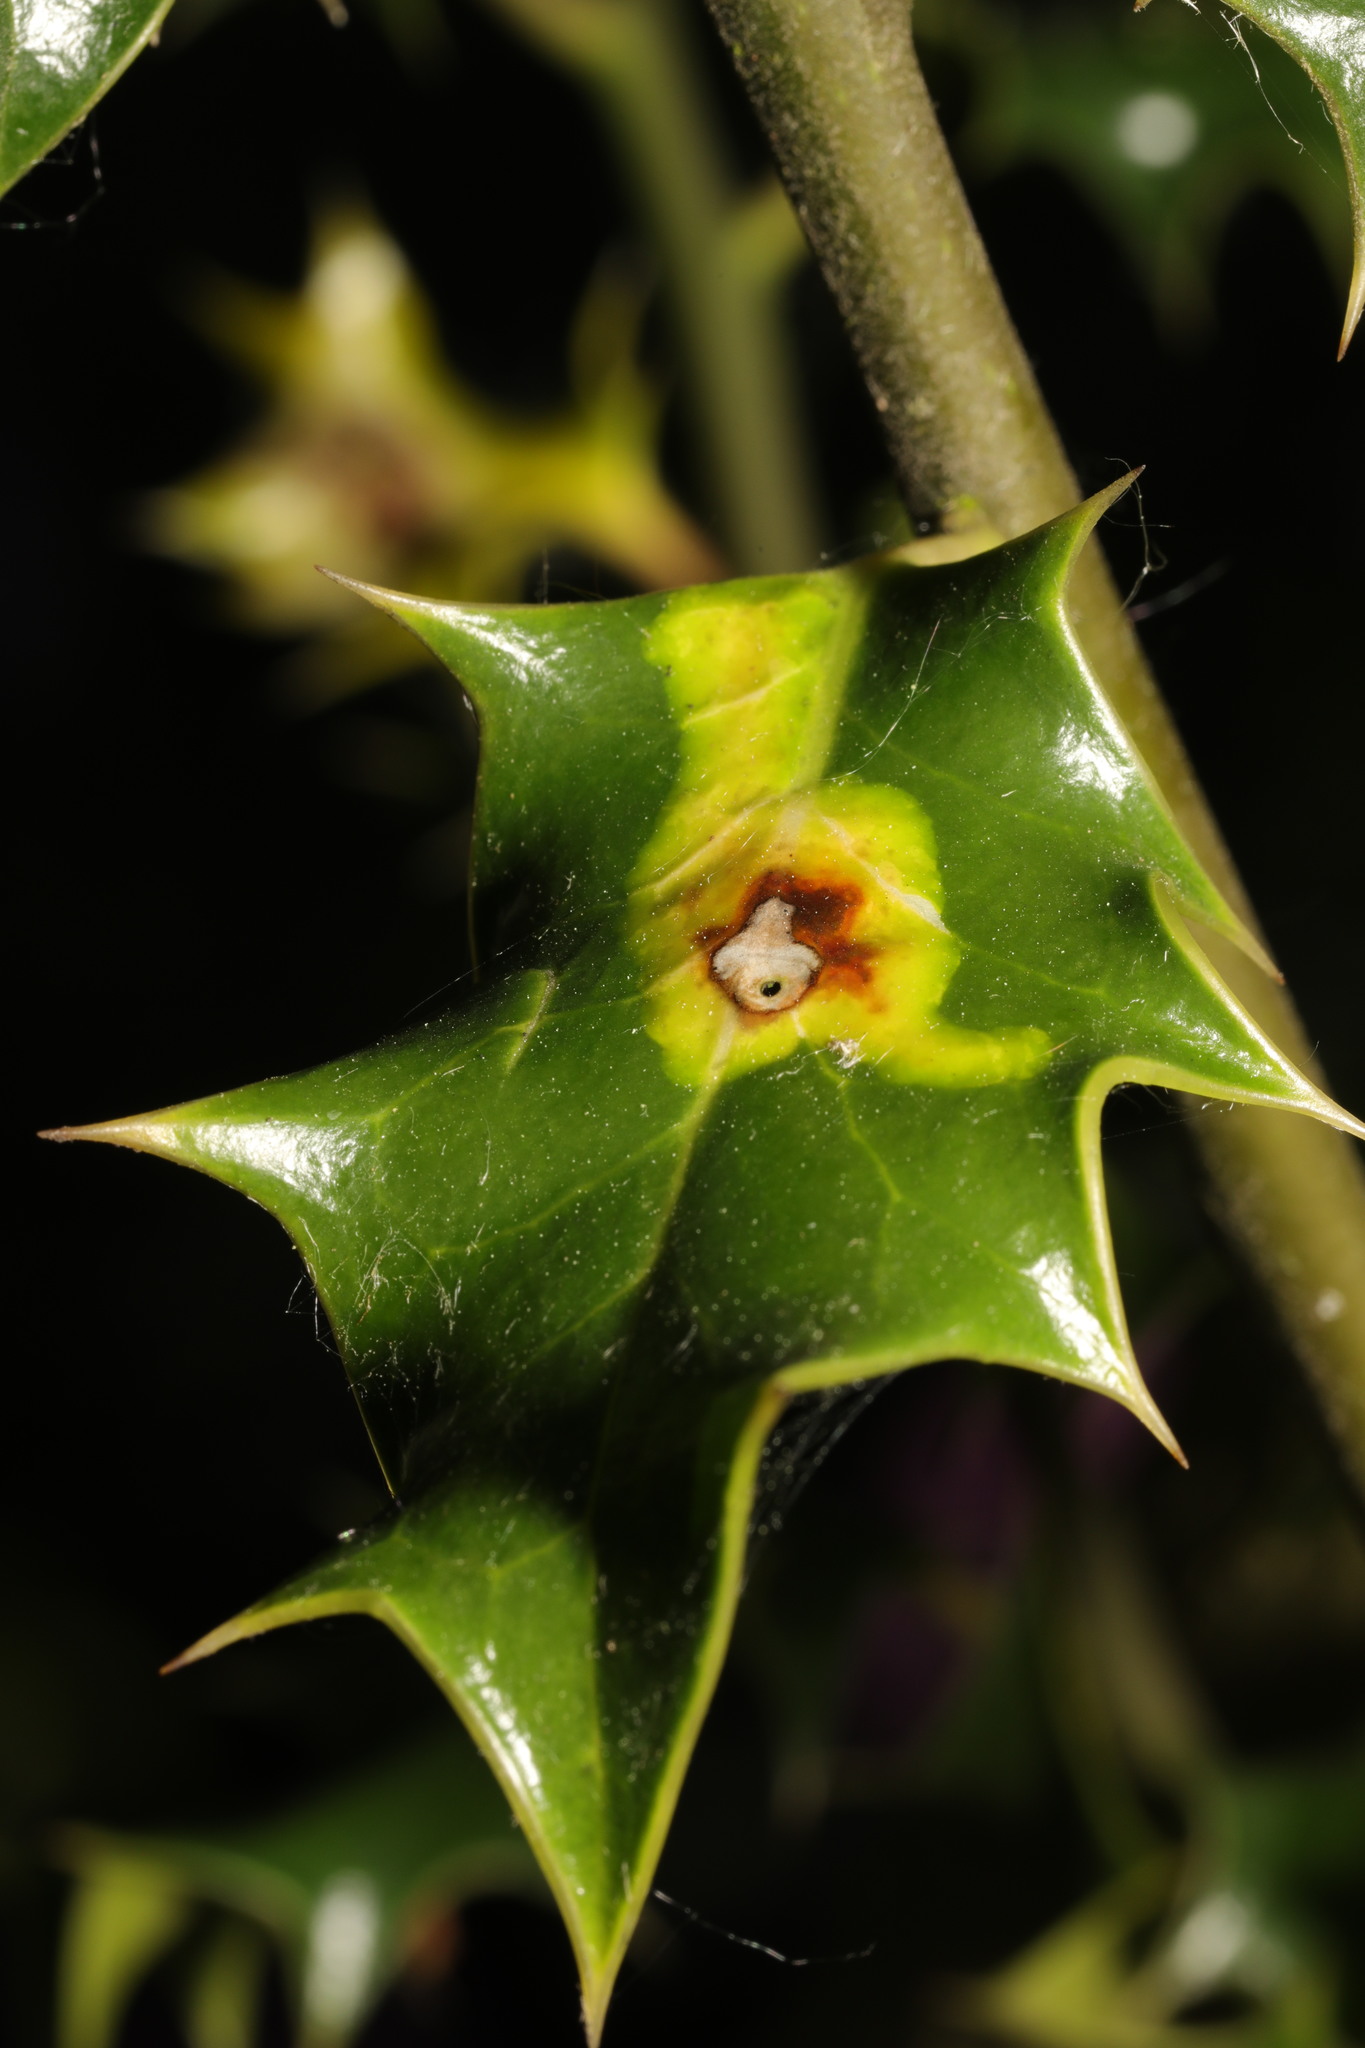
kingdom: Animalia
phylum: Arthropoda
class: Insecta
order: Diptera
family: Agromyzidae
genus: Phytomyza
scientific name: Phytomyza ilicis
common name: Holly leafminer
